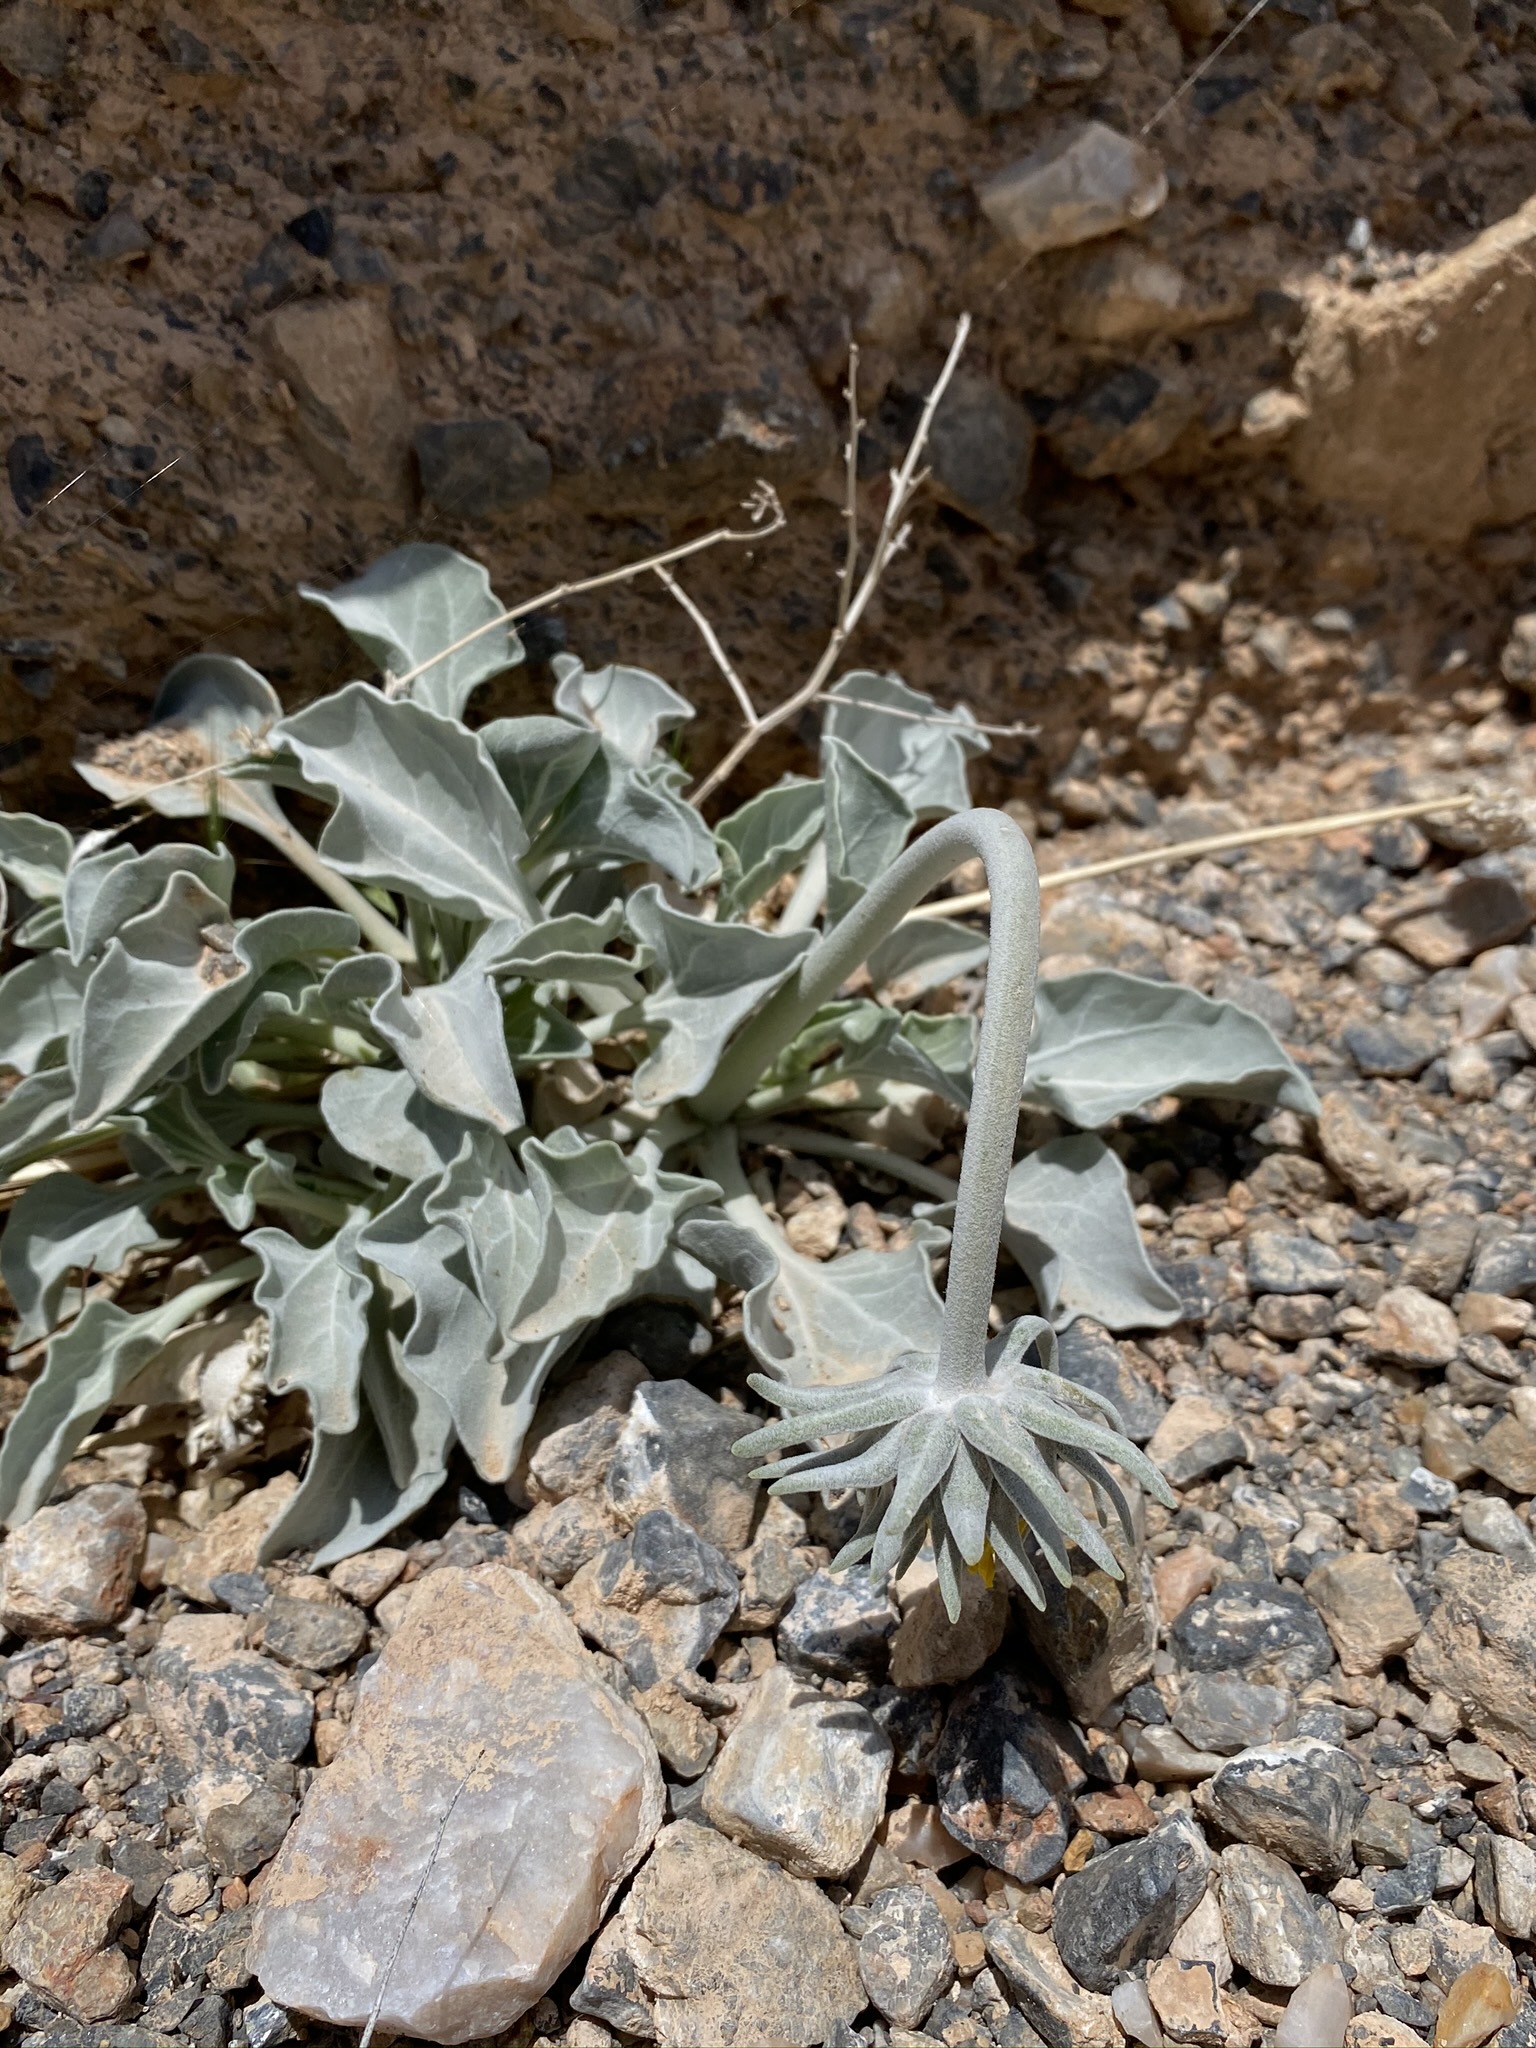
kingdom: Plantae
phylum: Tracheophyta
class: Magnoliopsida
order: Asterales
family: Asteraceae
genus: Enceliopsis
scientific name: Enceliopsis nudicaulis
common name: Naked-stem daisy
